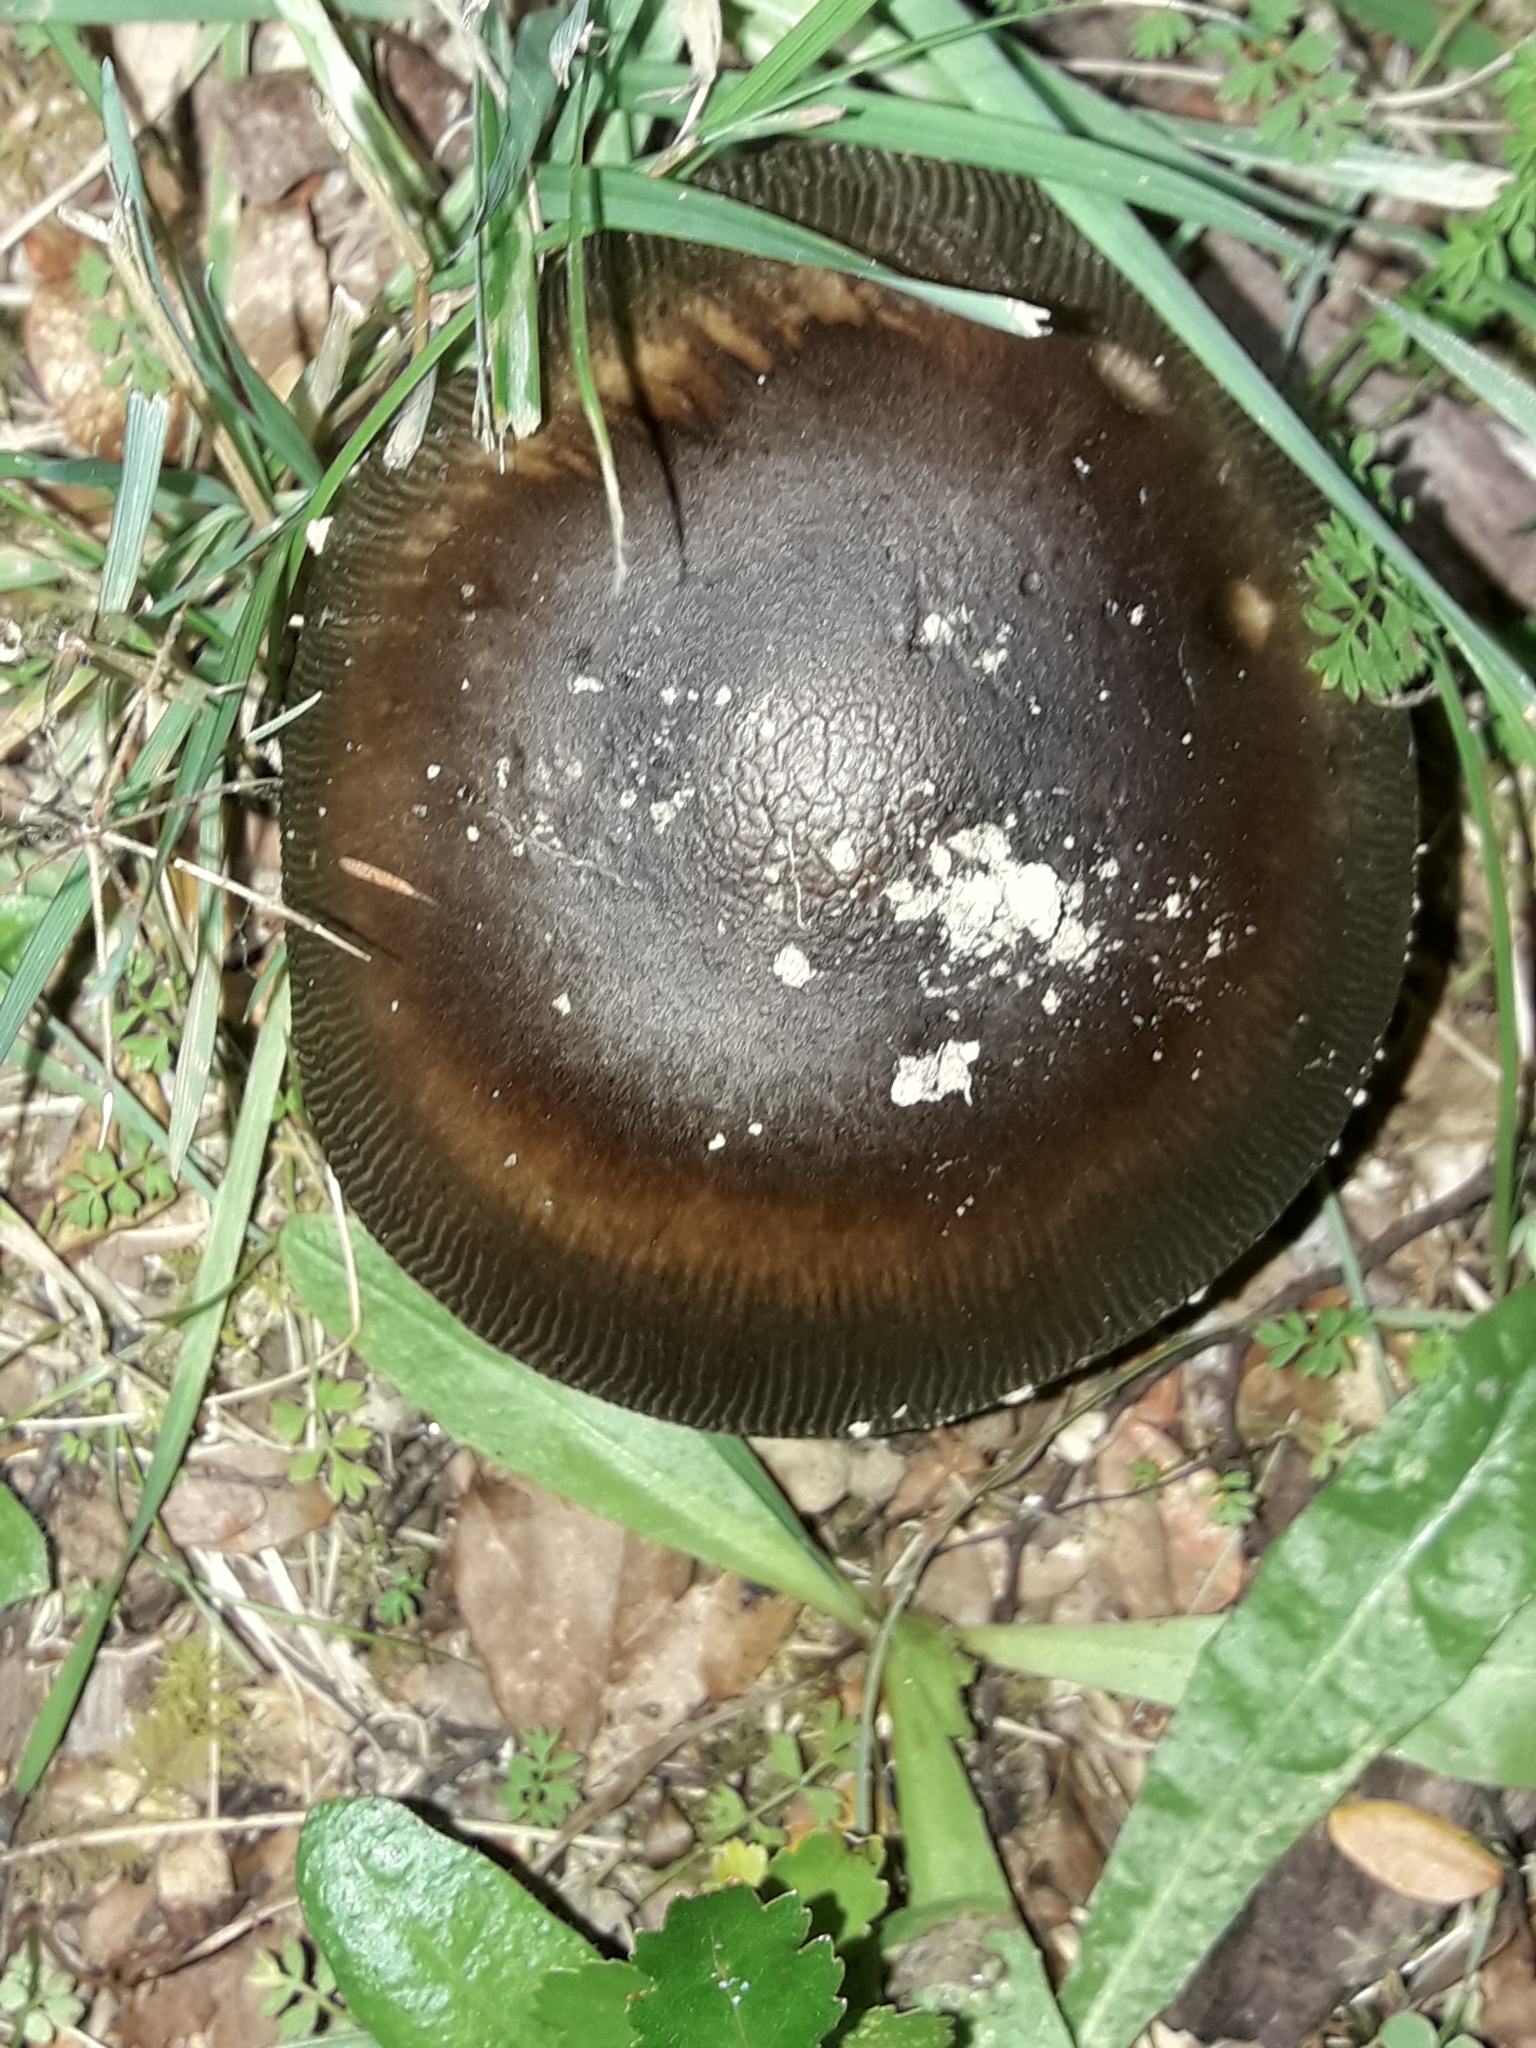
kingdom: Fungi
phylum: Basidiomycota
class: Agaricomycetes
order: Agaricales
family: Amanitaceae
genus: Amanita
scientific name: Amanita pekeoides
